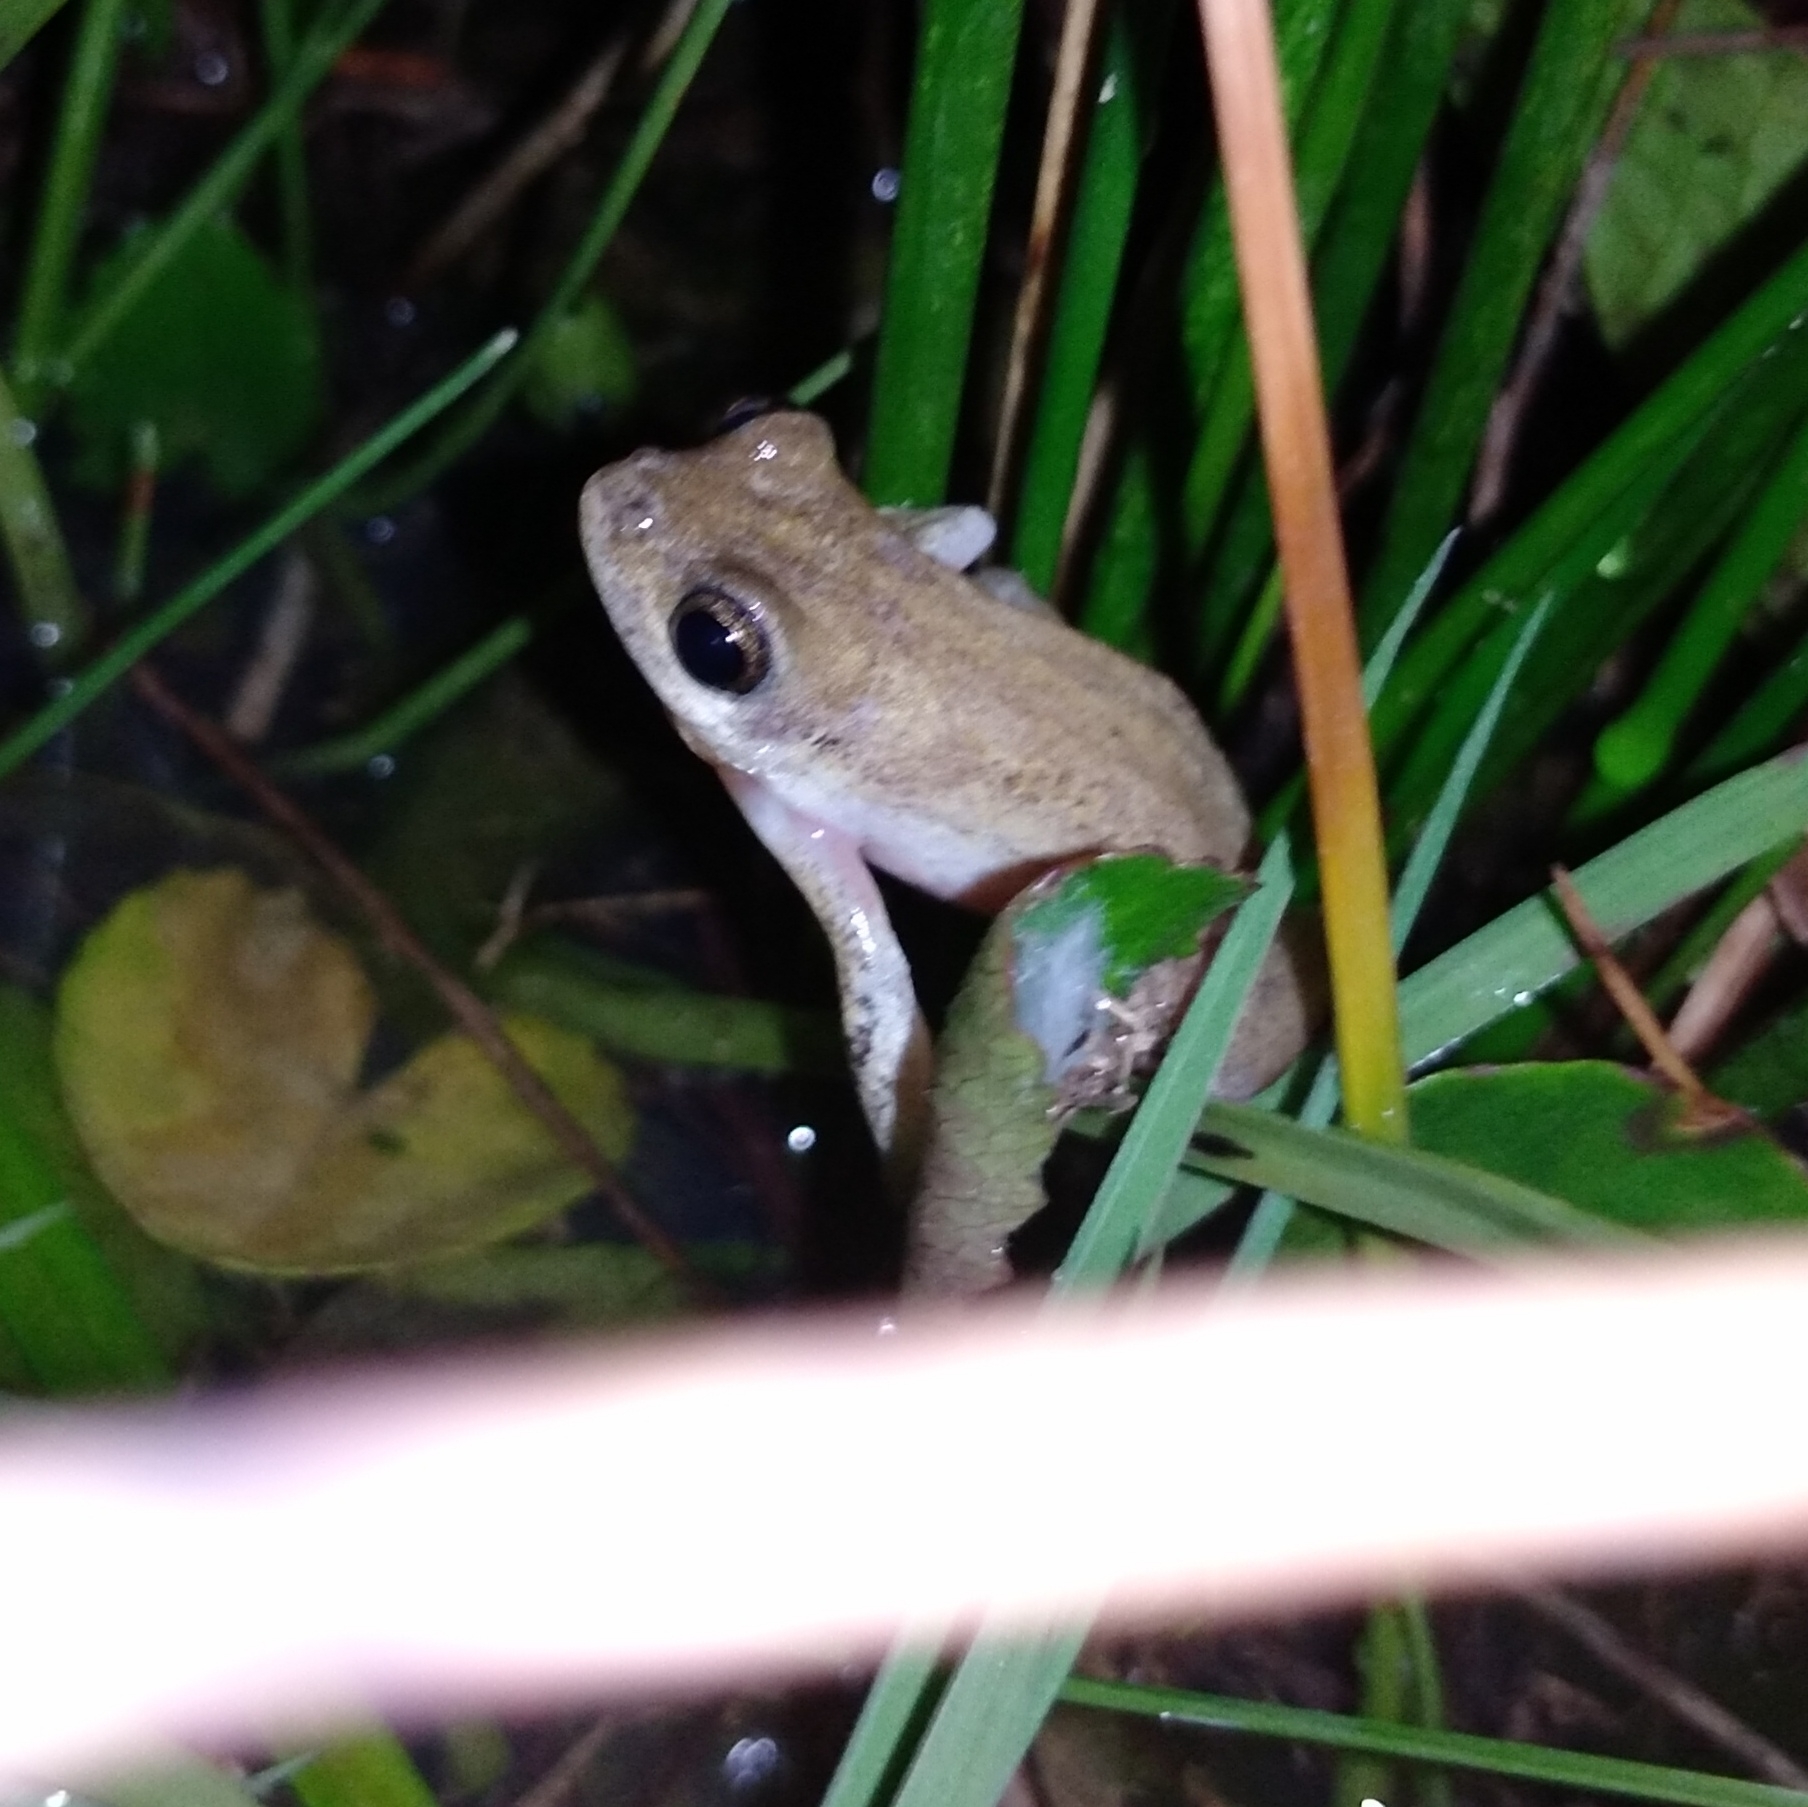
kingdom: Animalia
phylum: Chordata
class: Amphibia
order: Anura
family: Hyperoliidae
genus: Hyperolius
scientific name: Hyperolius marmoratus
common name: Painted reed frog
